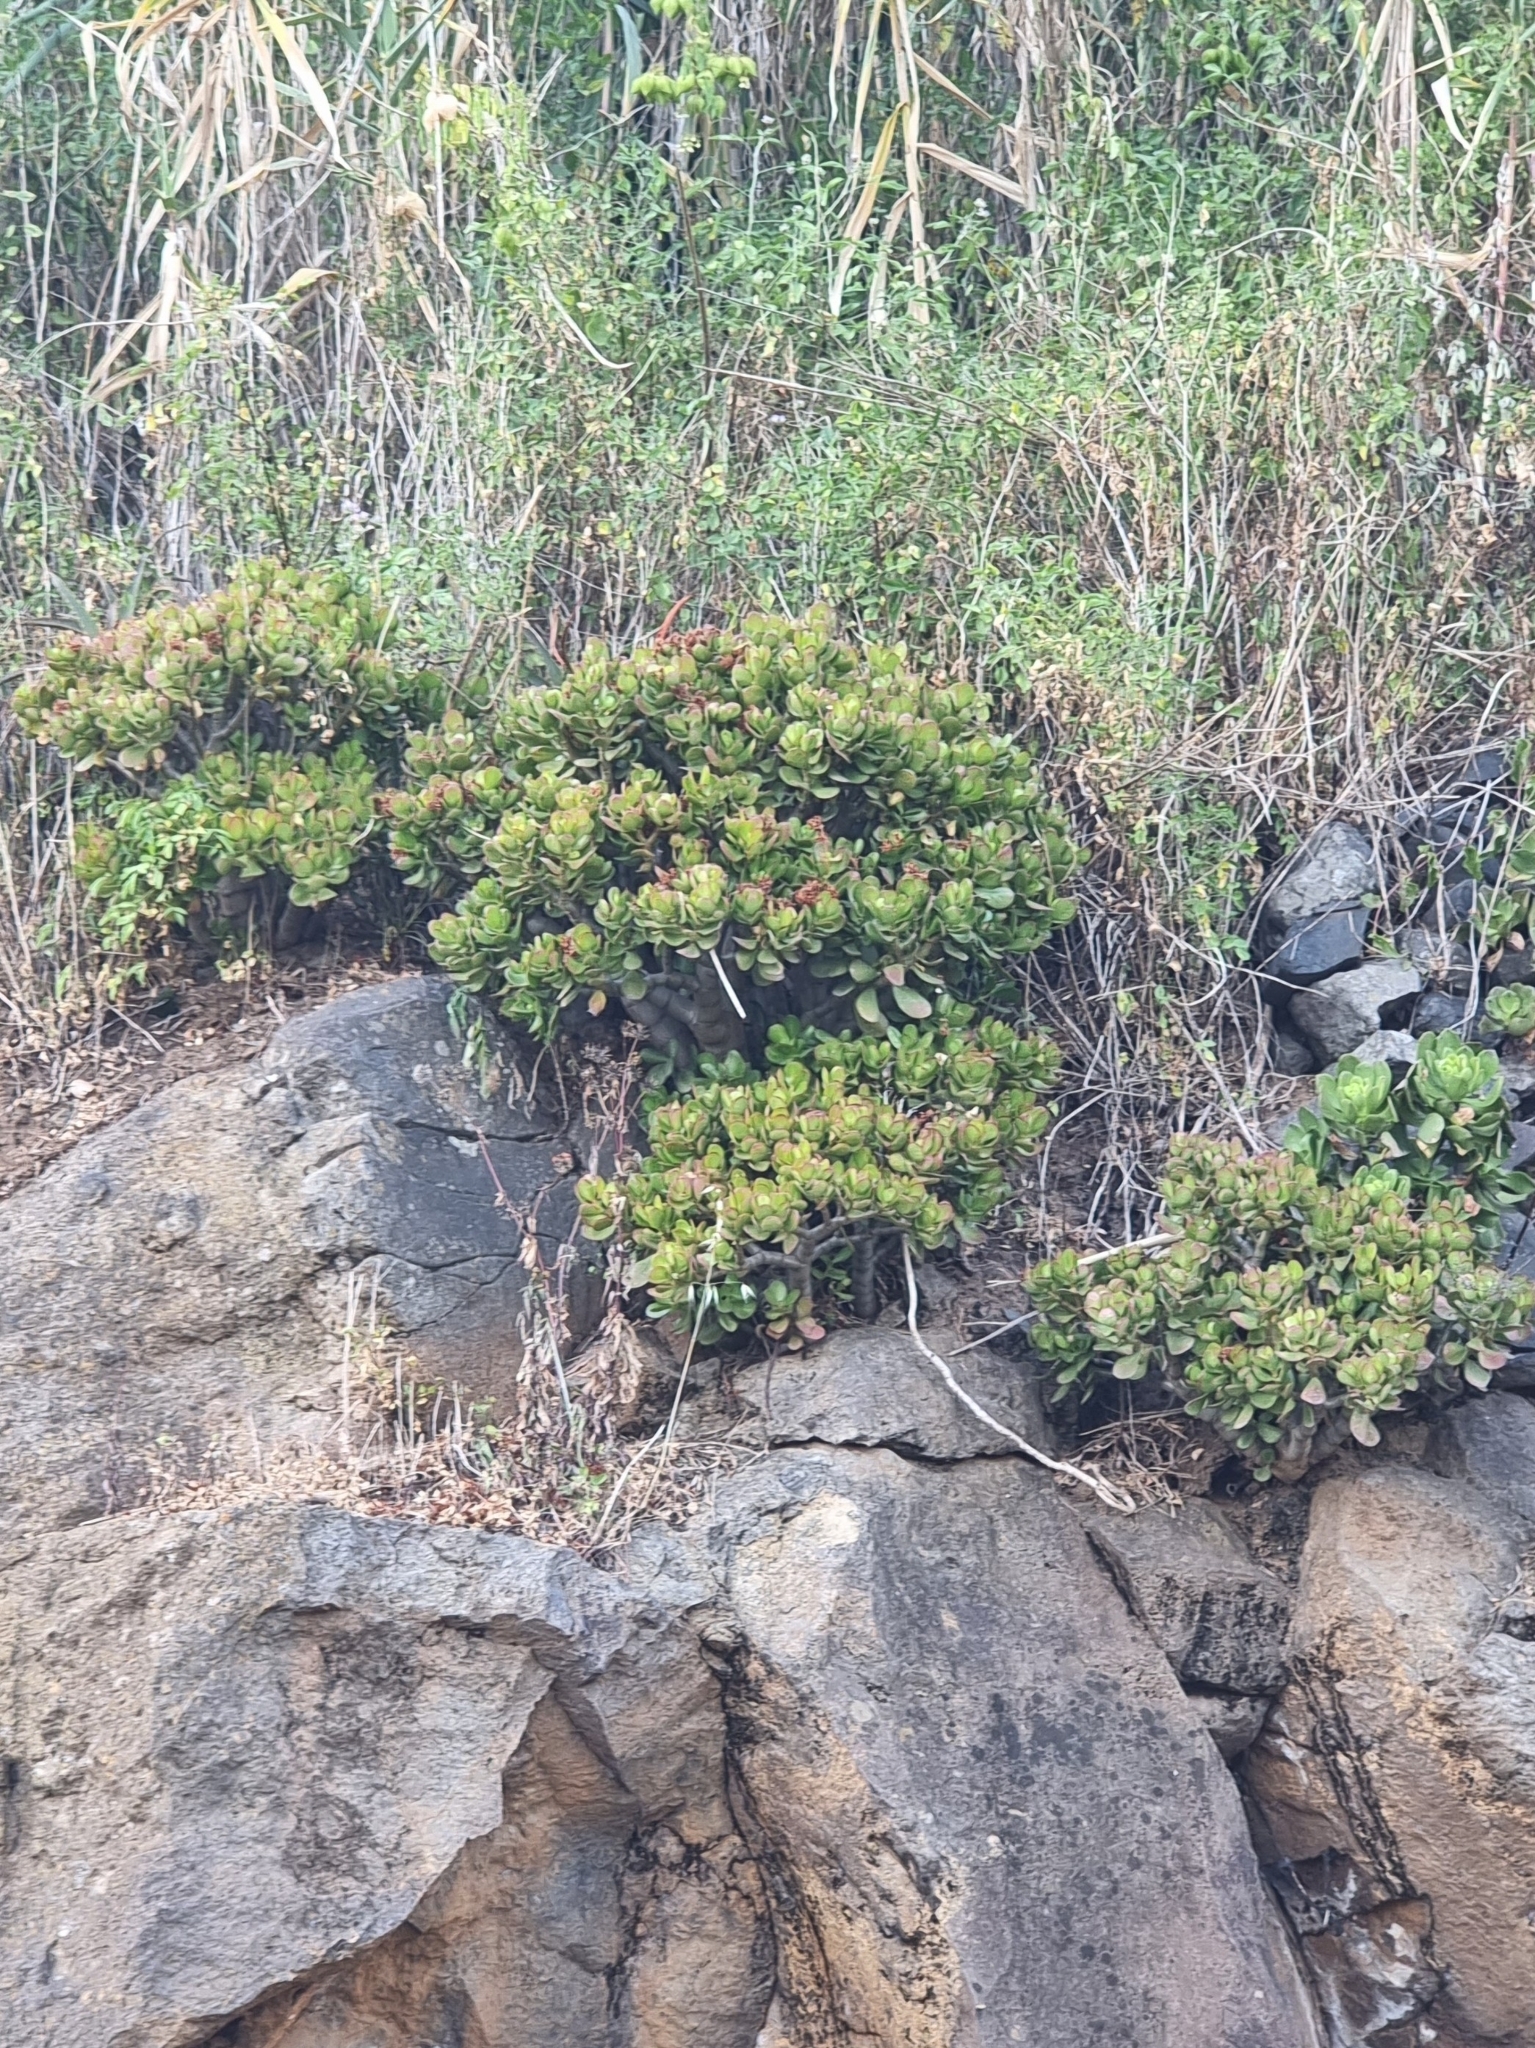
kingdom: Plantae
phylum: Tracheophyta
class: Magnoliopsida
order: Saxifragales
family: Crassulaceae
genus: Crassula
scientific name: Crassula ovata
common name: Jade plant
